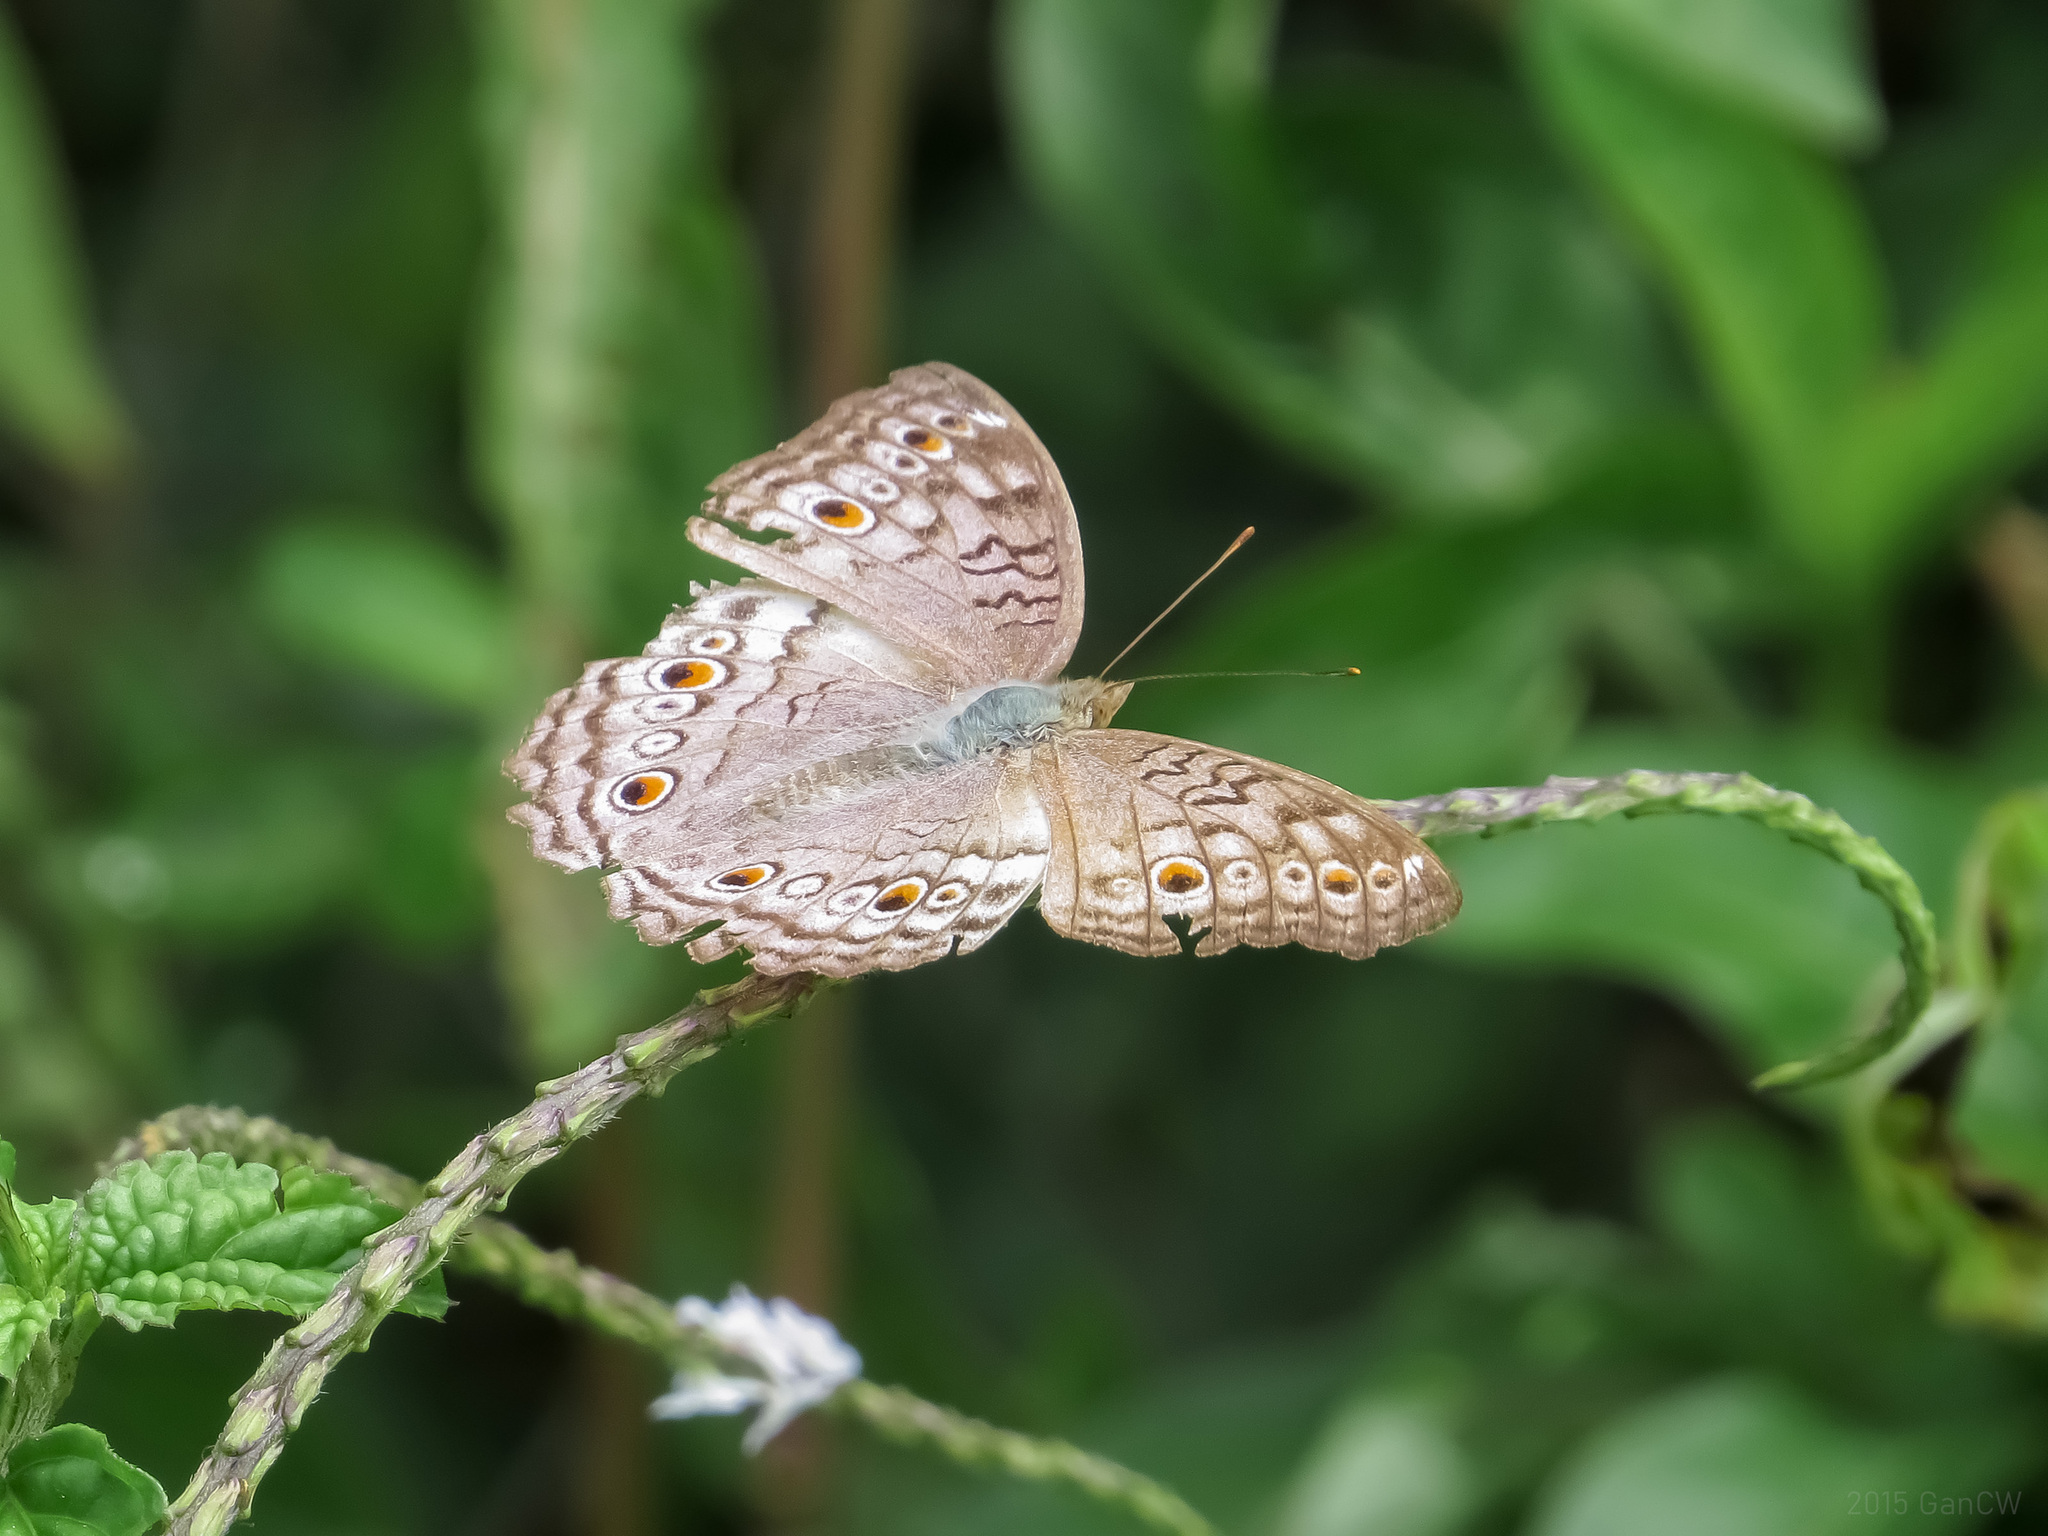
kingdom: Animalia
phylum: Arthropoda
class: Insecta
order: Lepidoptera
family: Nymphalidae
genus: Junonia
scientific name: Junonia atlites
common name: Grey pansy
